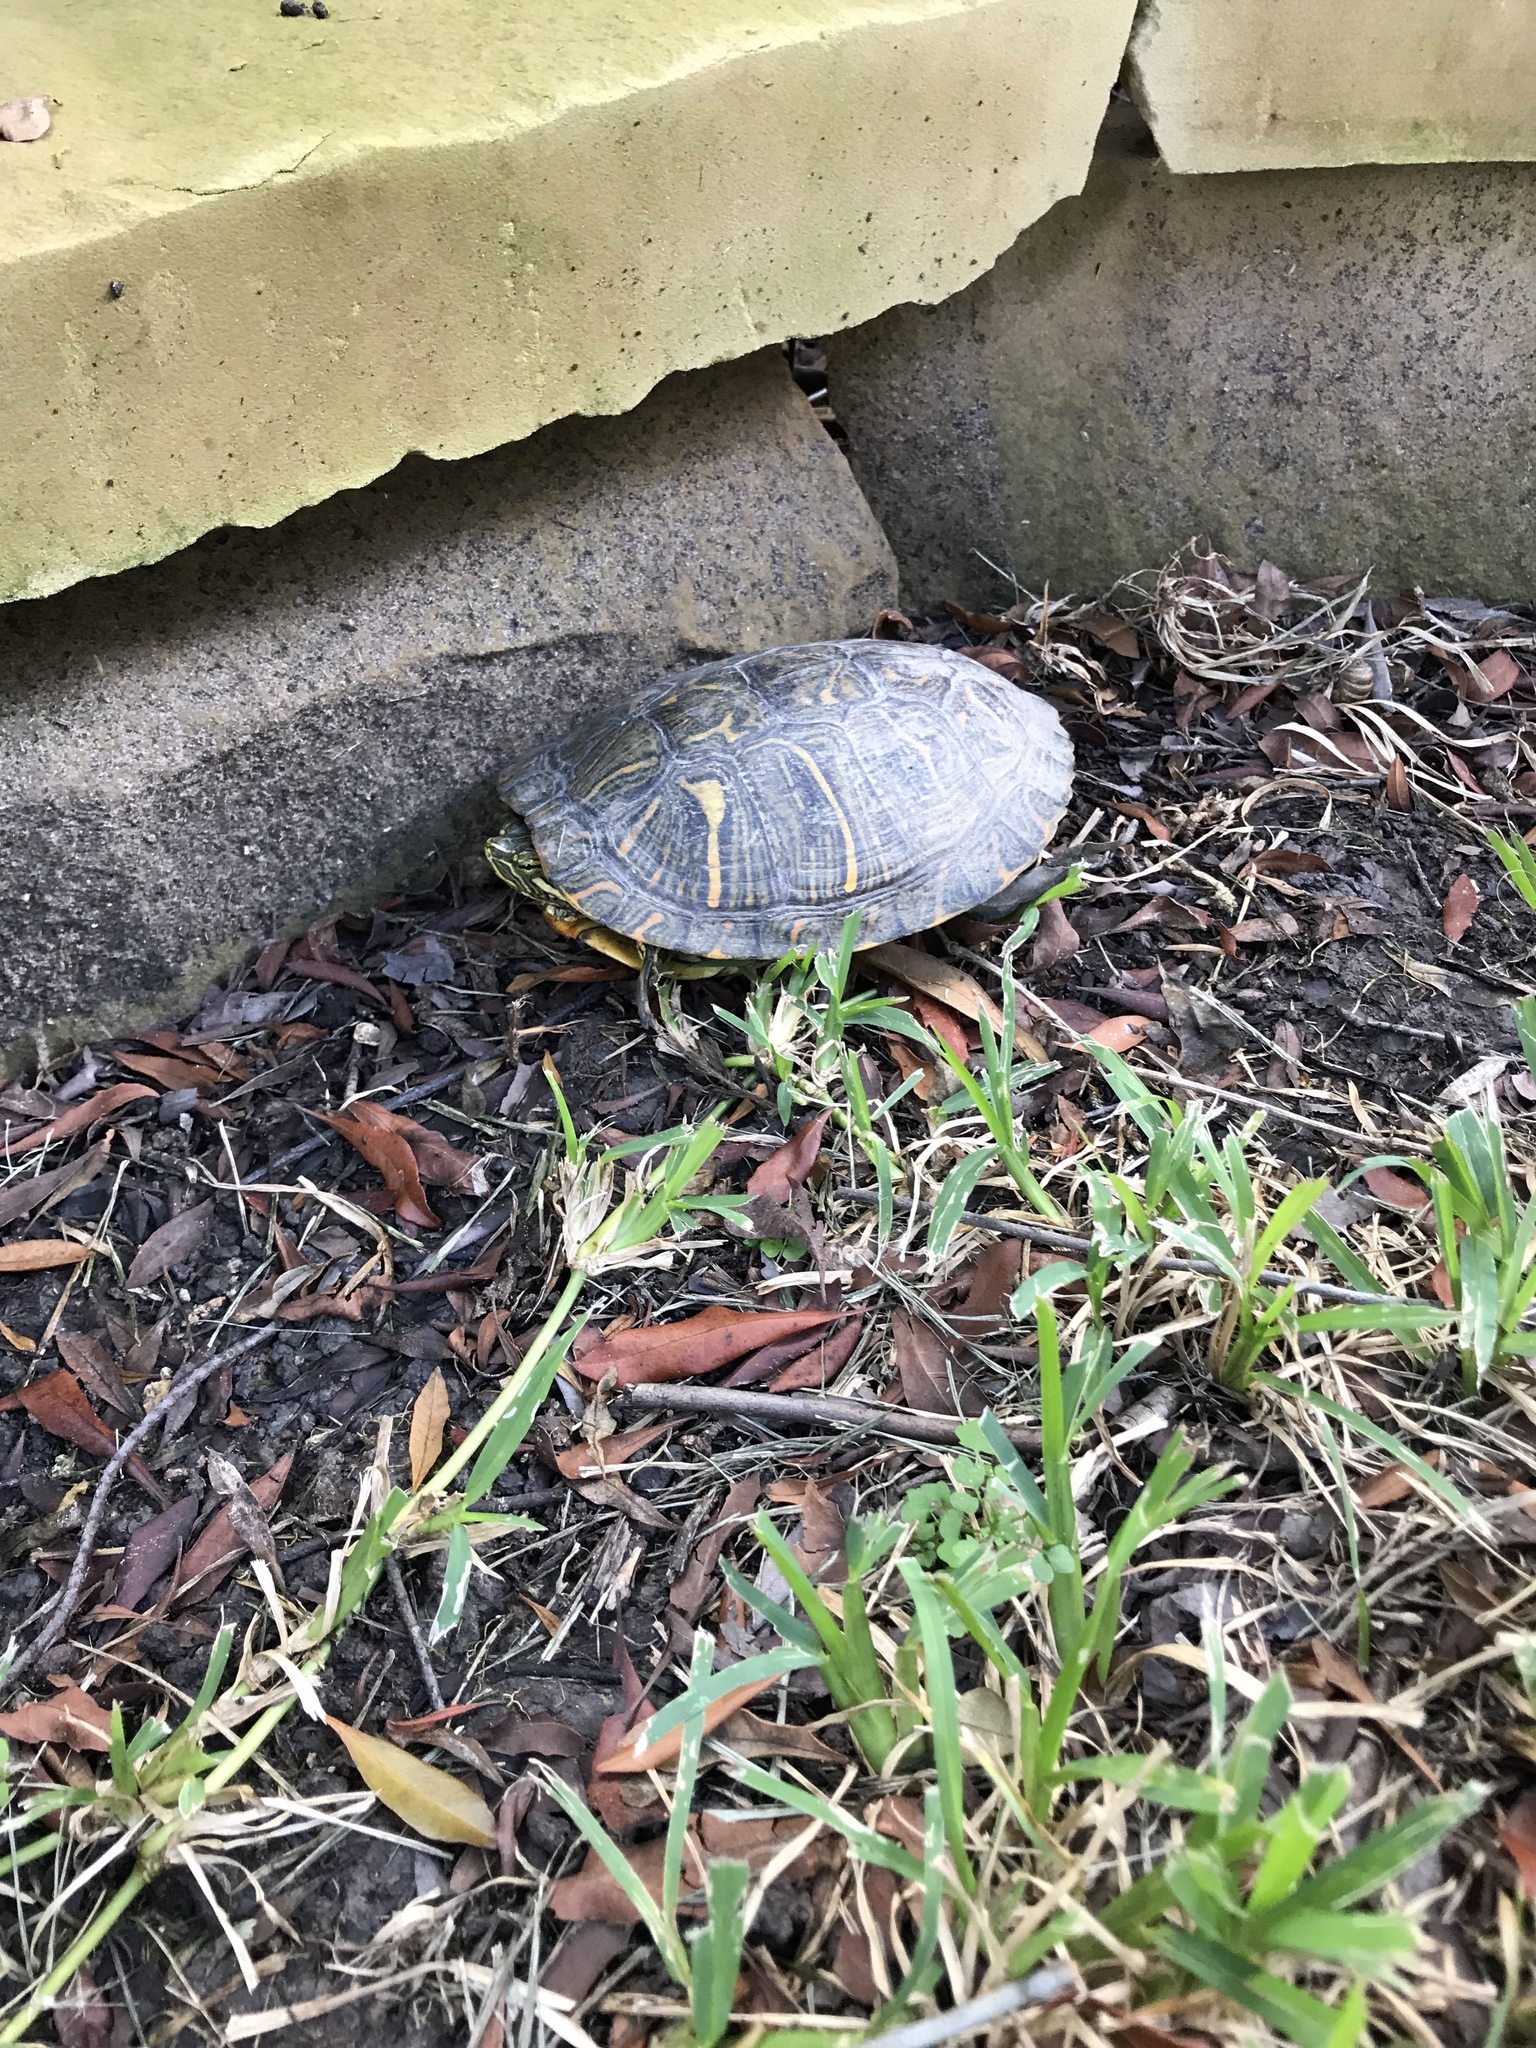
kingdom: Animalia
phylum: Chordata
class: Testudines
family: Emydidae
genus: Trachemys
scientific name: Trachemys scripta
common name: Slider
